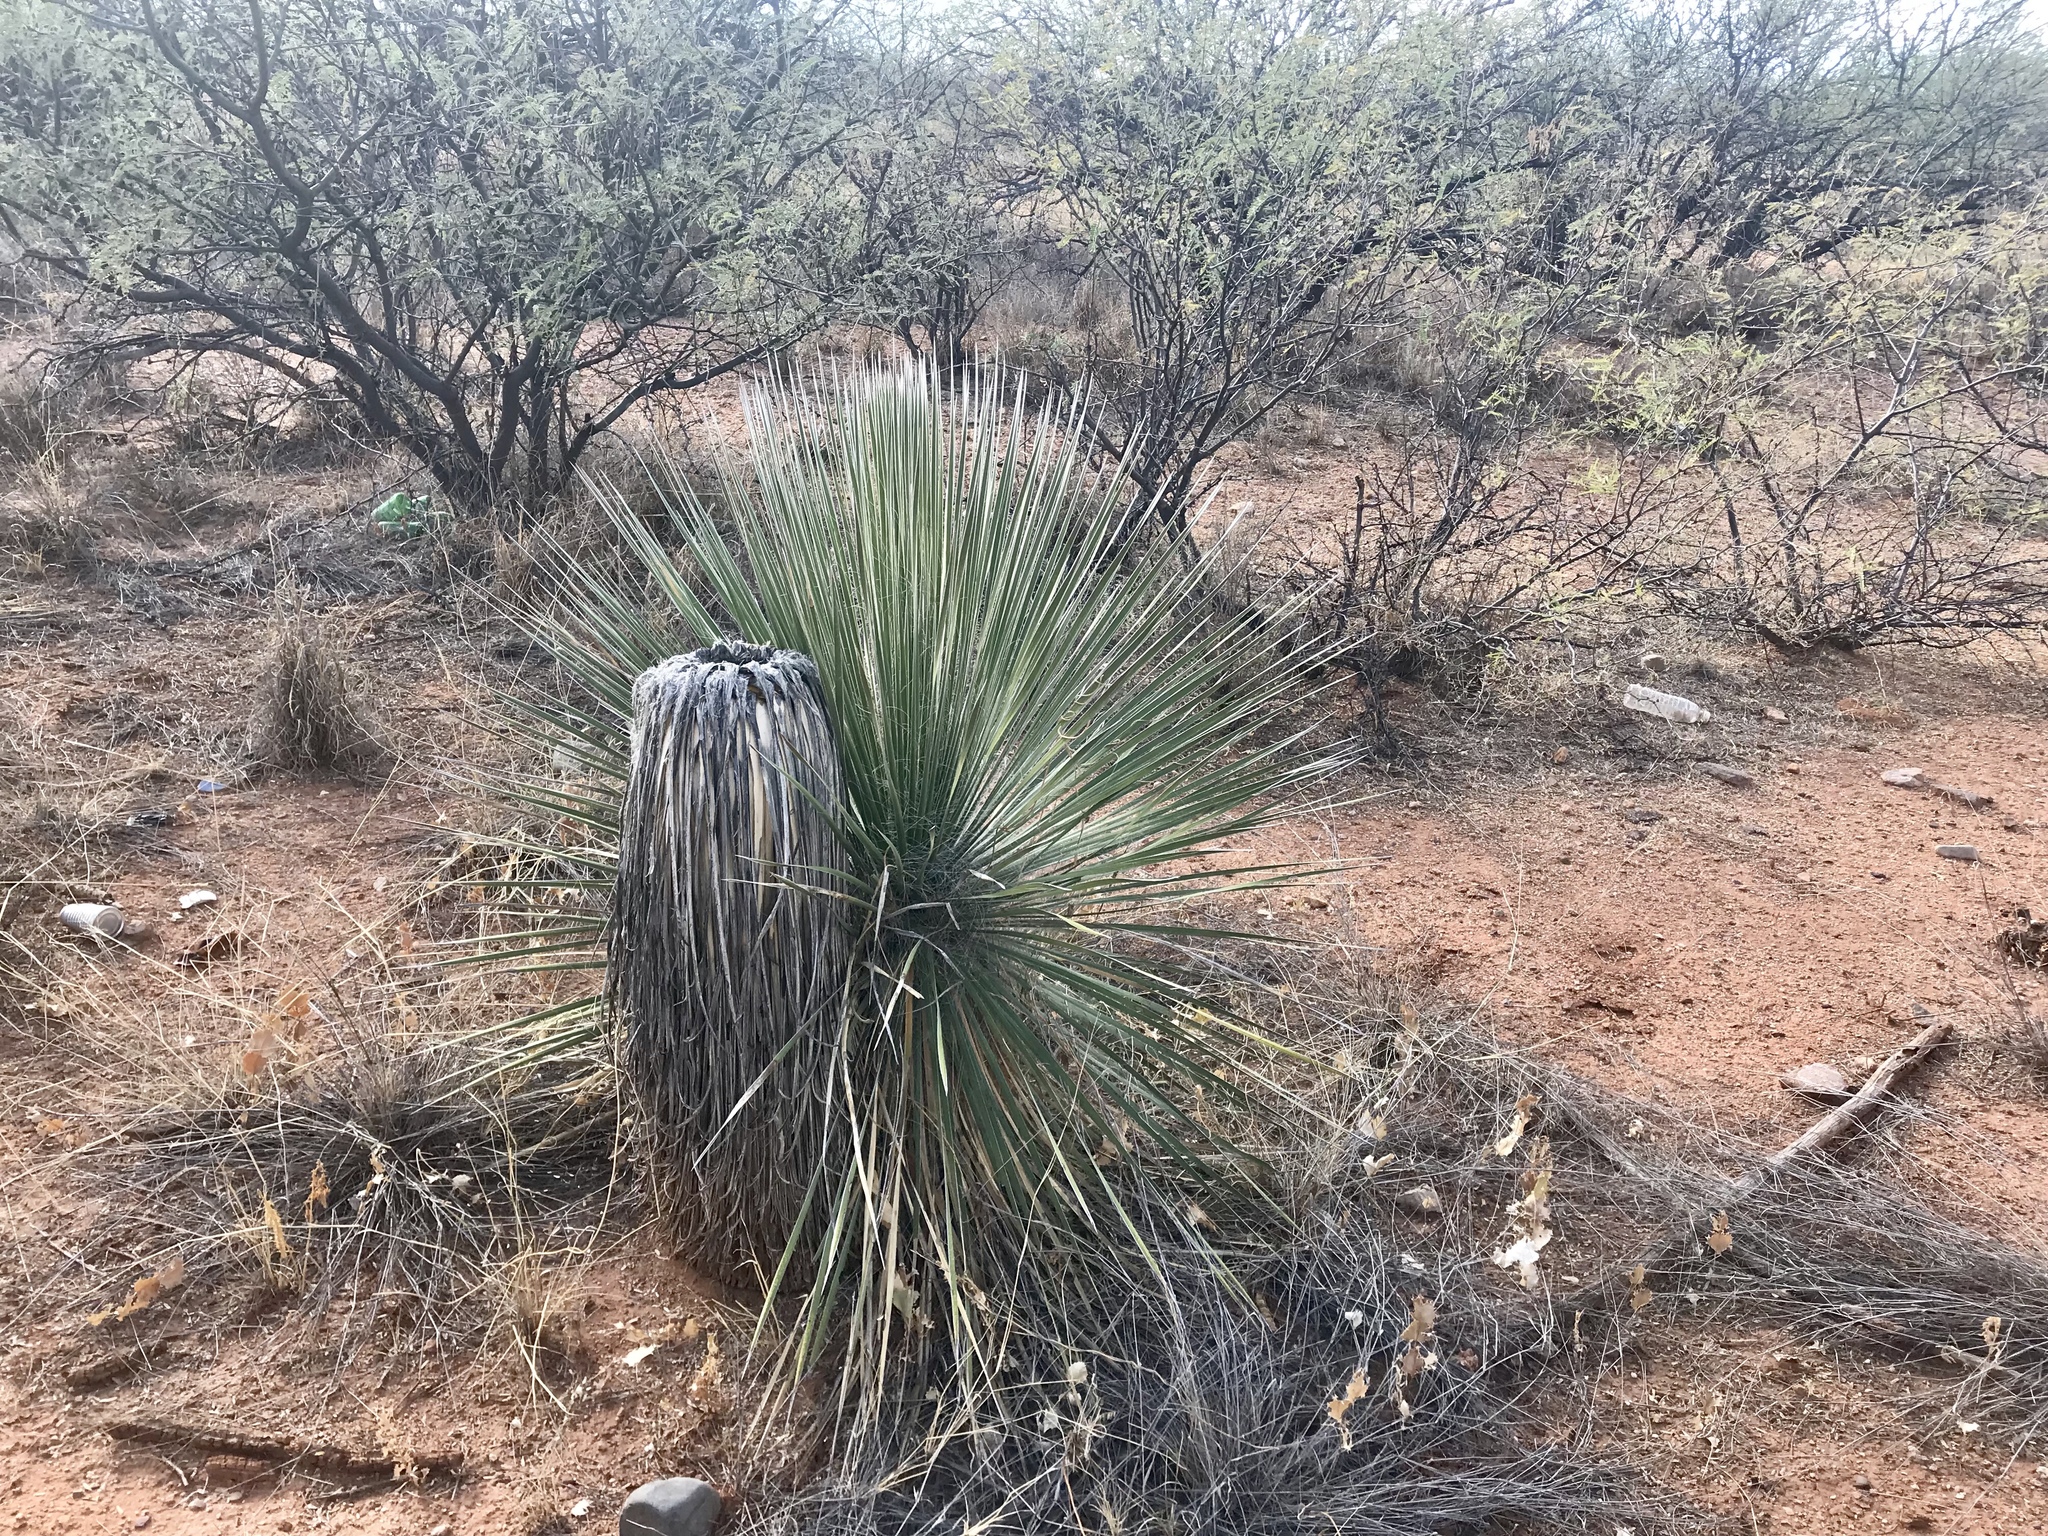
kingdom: Plantae
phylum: Tracheophyta
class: Liliopsida
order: Asparagales
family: Asparagaceae
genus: Yucca
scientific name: Yucca elata
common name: Palmella
